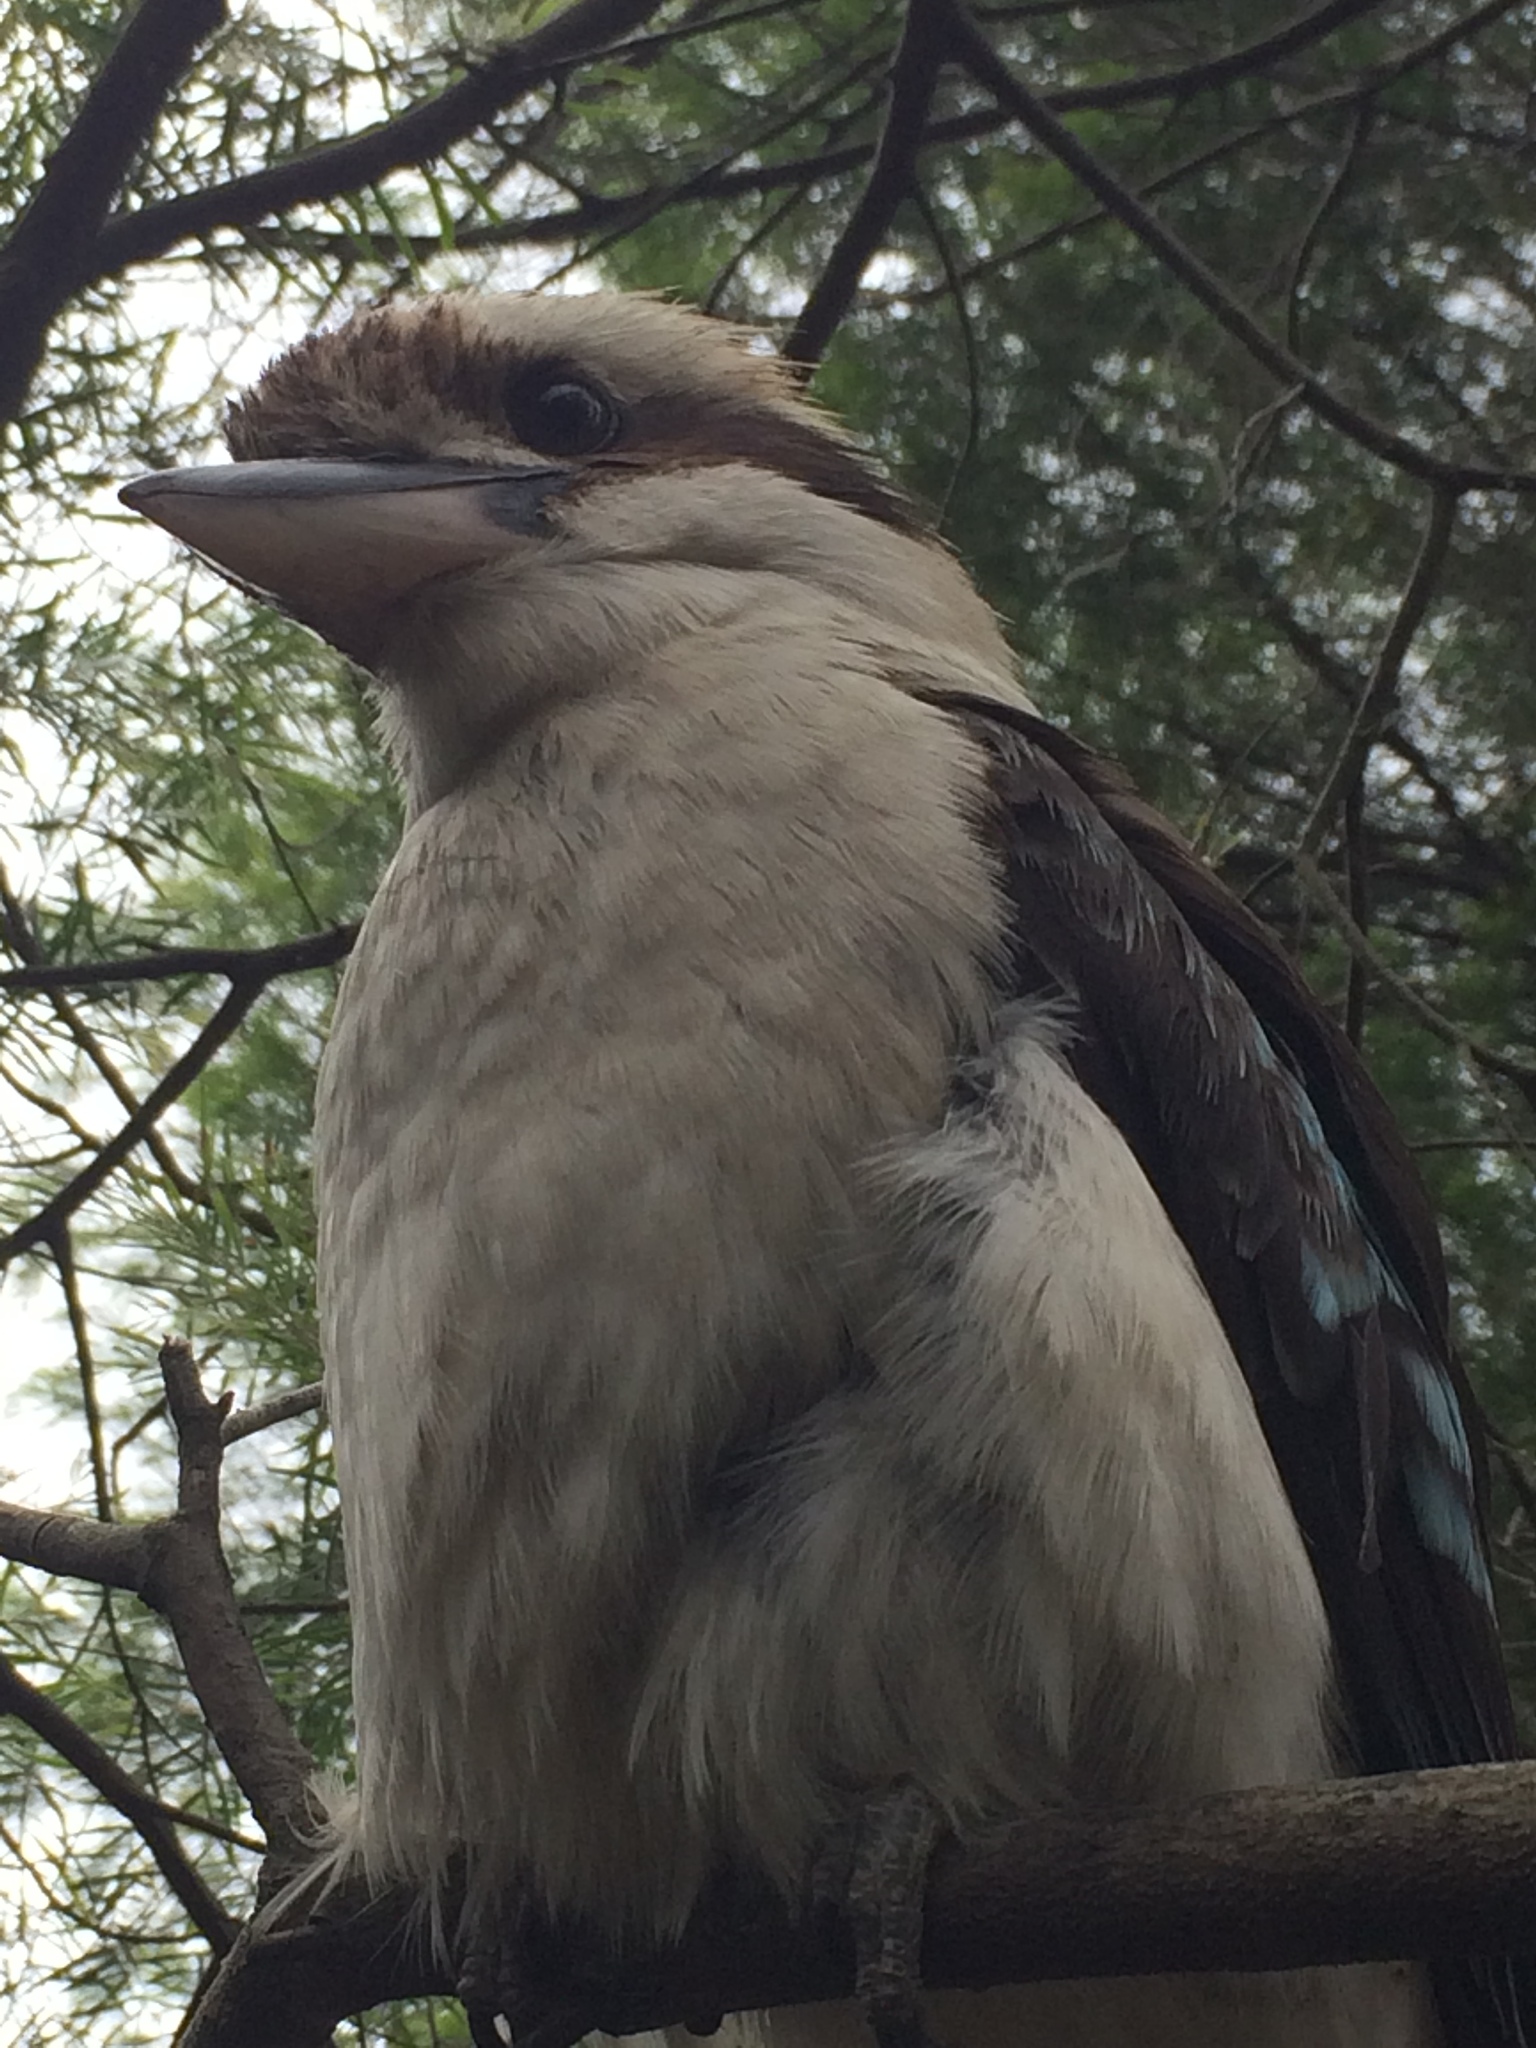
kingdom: Animalia
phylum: Chordata
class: Aves
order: Coraciiformes
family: Alcedinidae
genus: Dacelo
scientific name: Dacelo novaeguineae
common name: Laughing kookaburra
